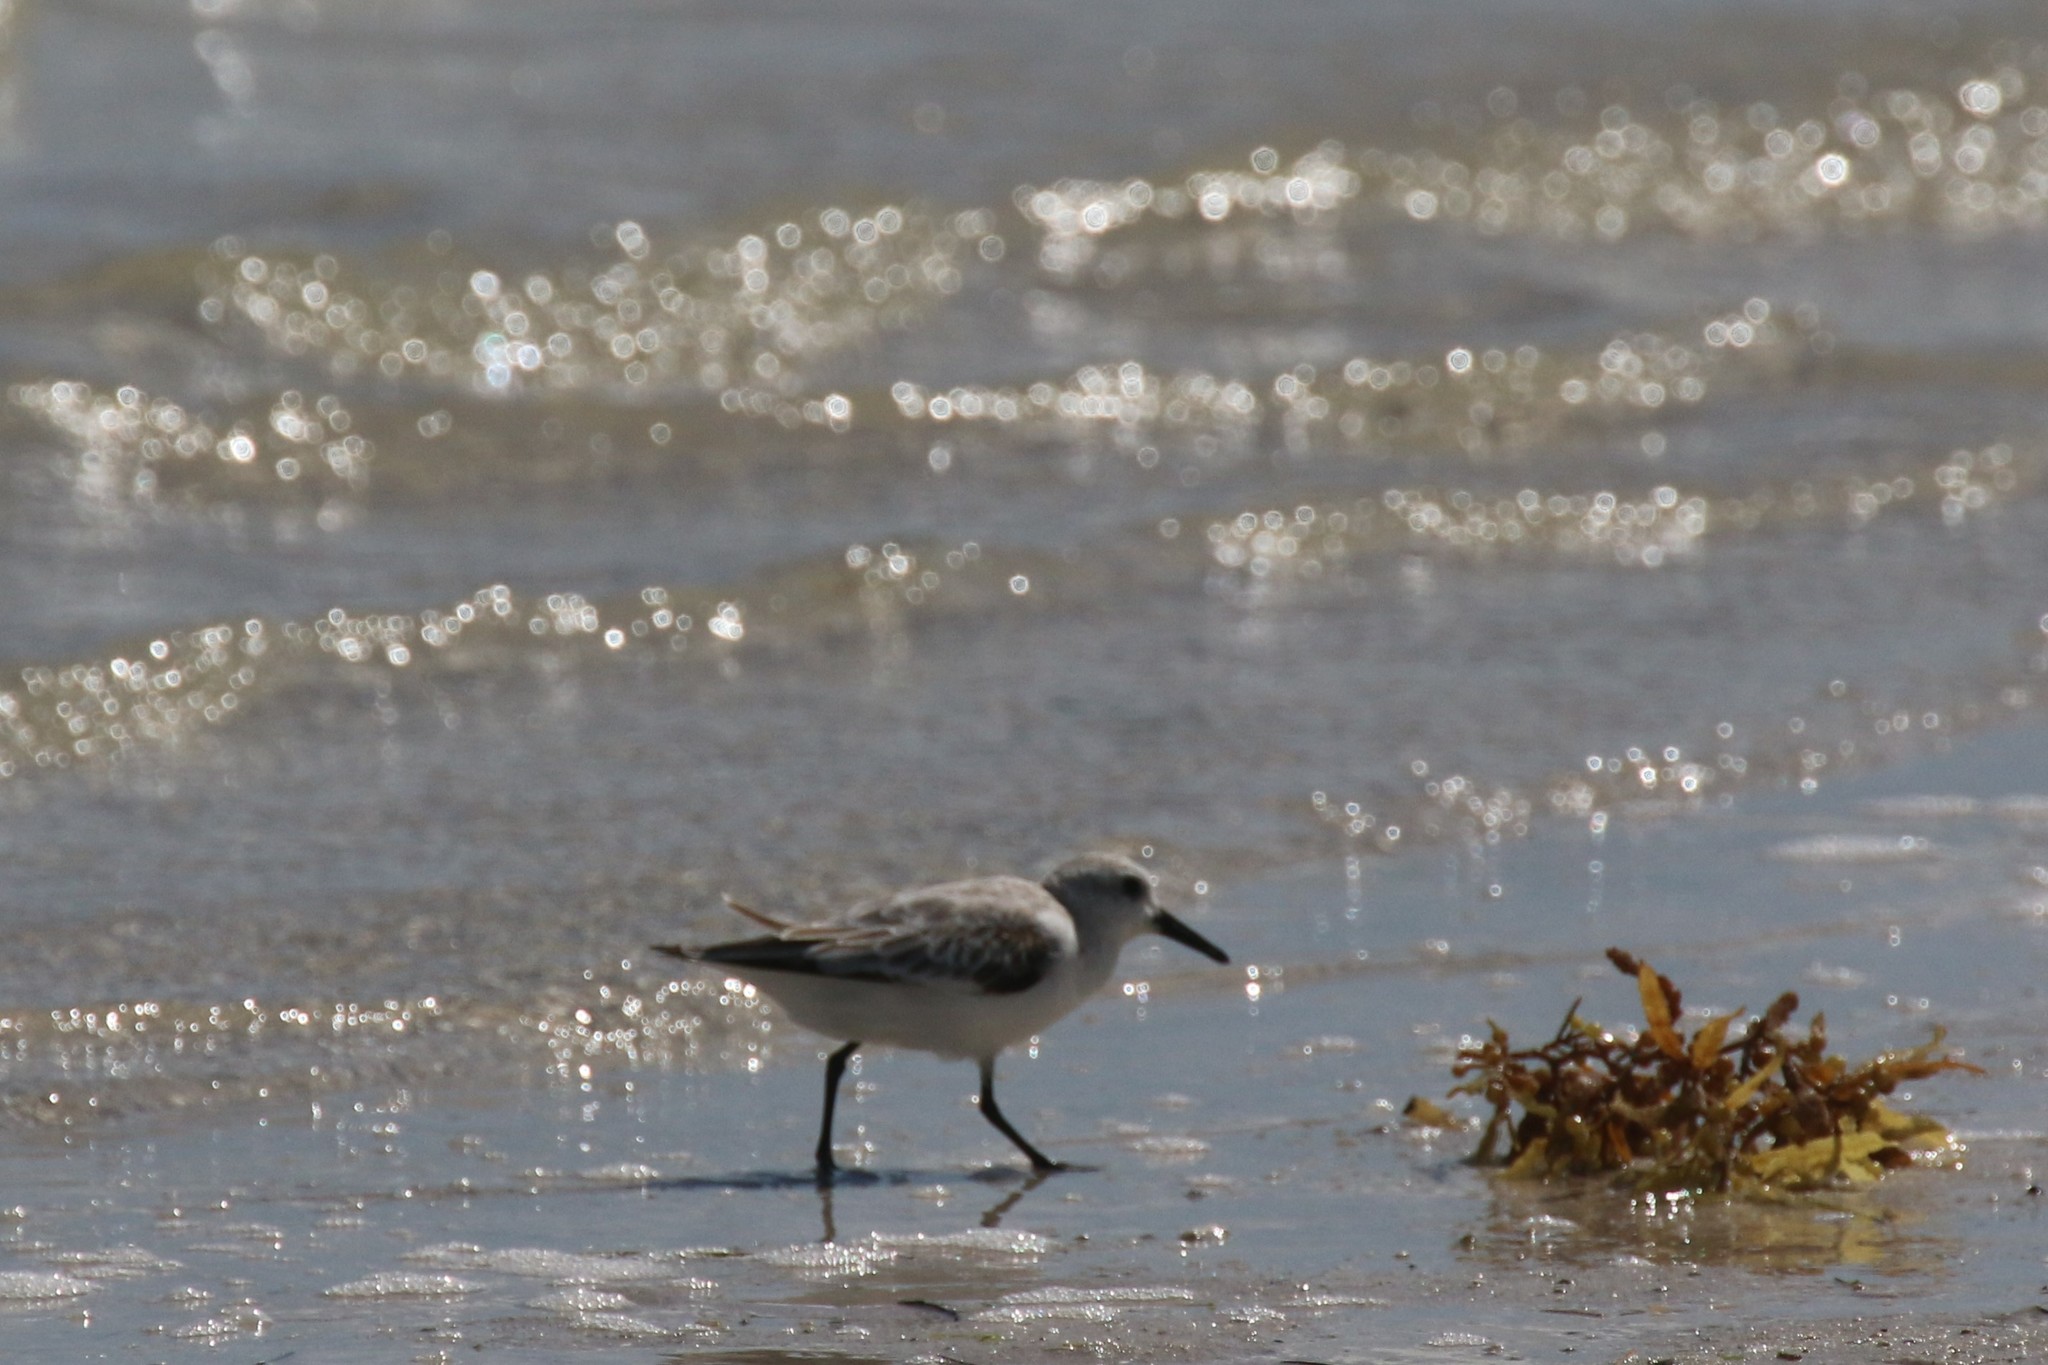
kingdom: Animalia
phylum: Chordata
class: Aves
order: Charadriiformes
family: Scolopacidae
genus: Calidris
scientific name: Calidris alba
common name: Sanderling
